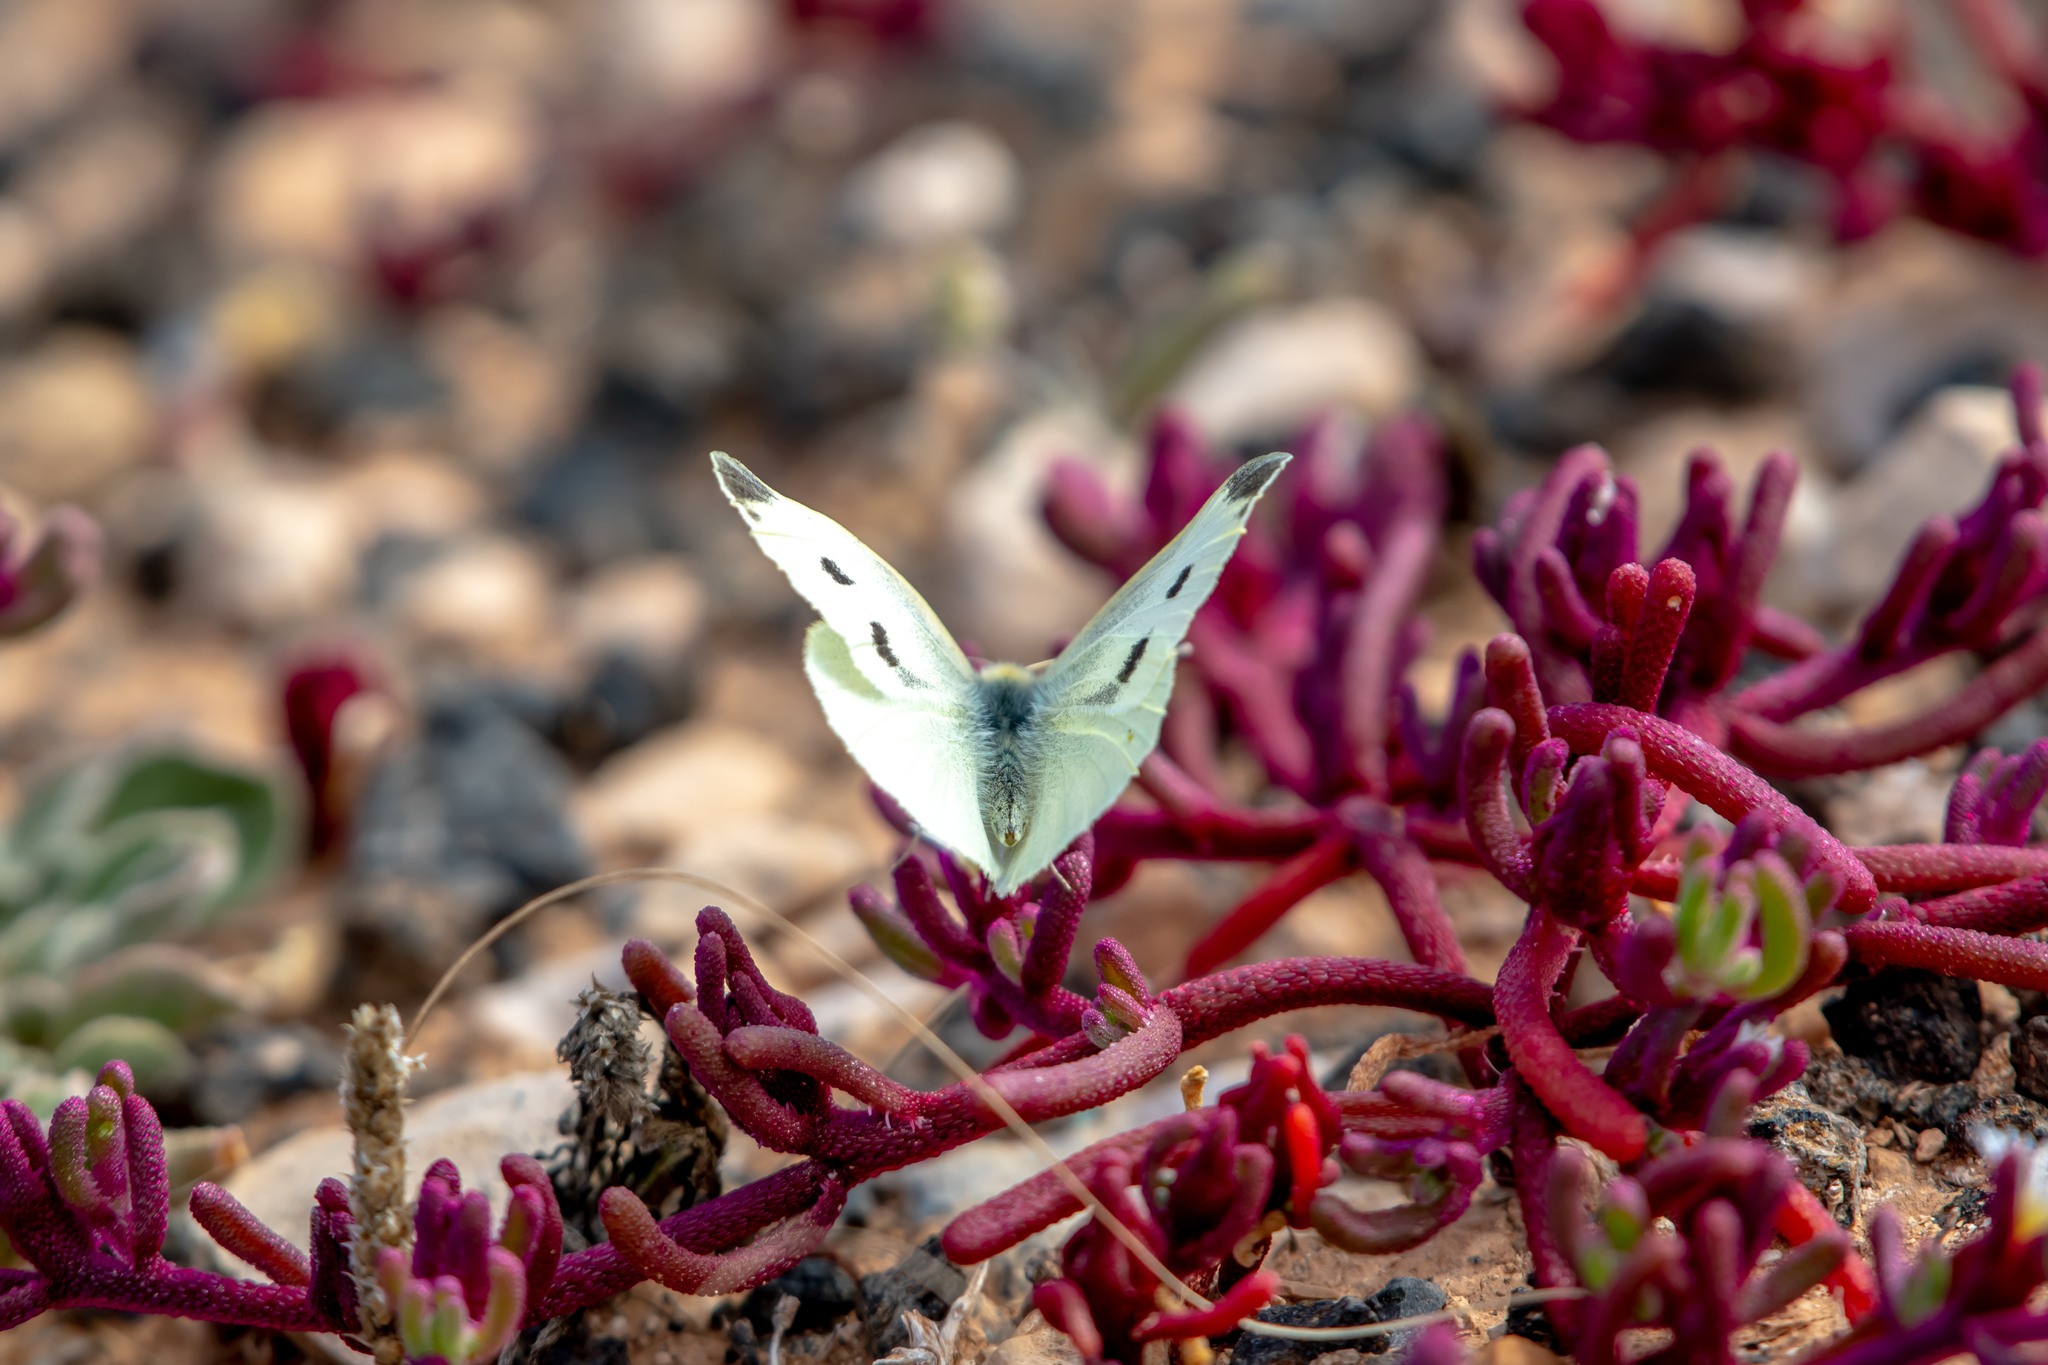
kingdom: Animalia
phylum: Arthropoda
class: Insecta
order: Lepidoptera
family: Pieridae
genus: Pieris
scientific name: Pieris rapae
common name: Small white
